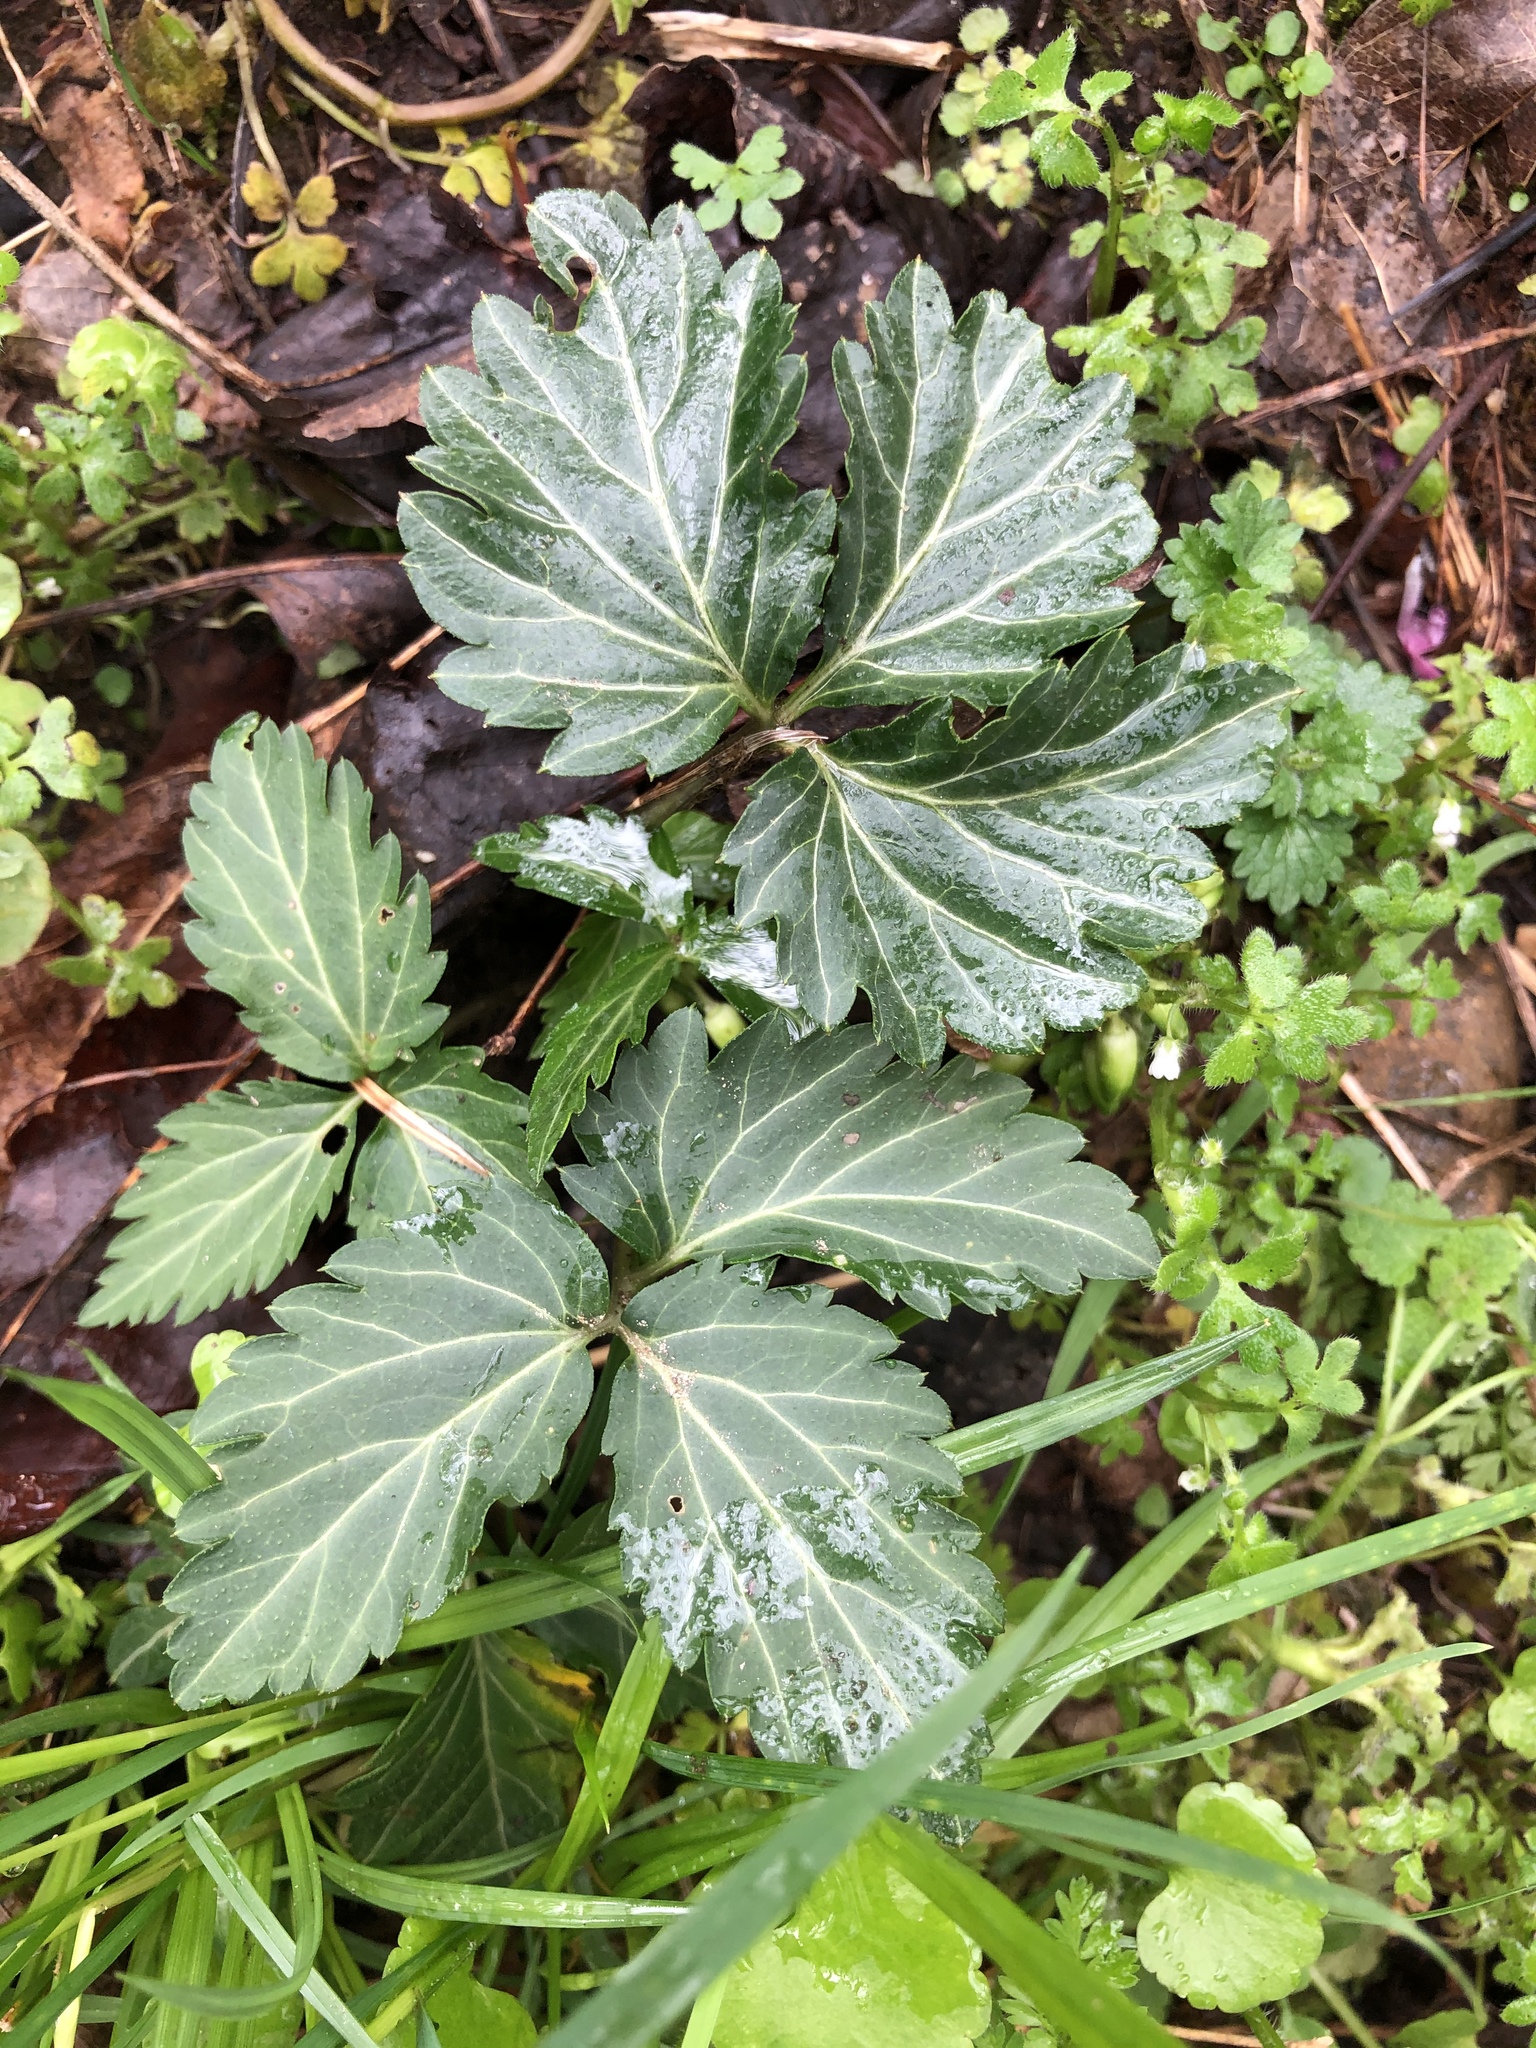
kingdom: Plantae
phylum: Tracheophyta
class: Magnoliopsida
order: Brassicales
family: Brassicaceae
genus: Cardamine
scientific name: Cardamine diphylla
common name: Broad-leaved toothwort
